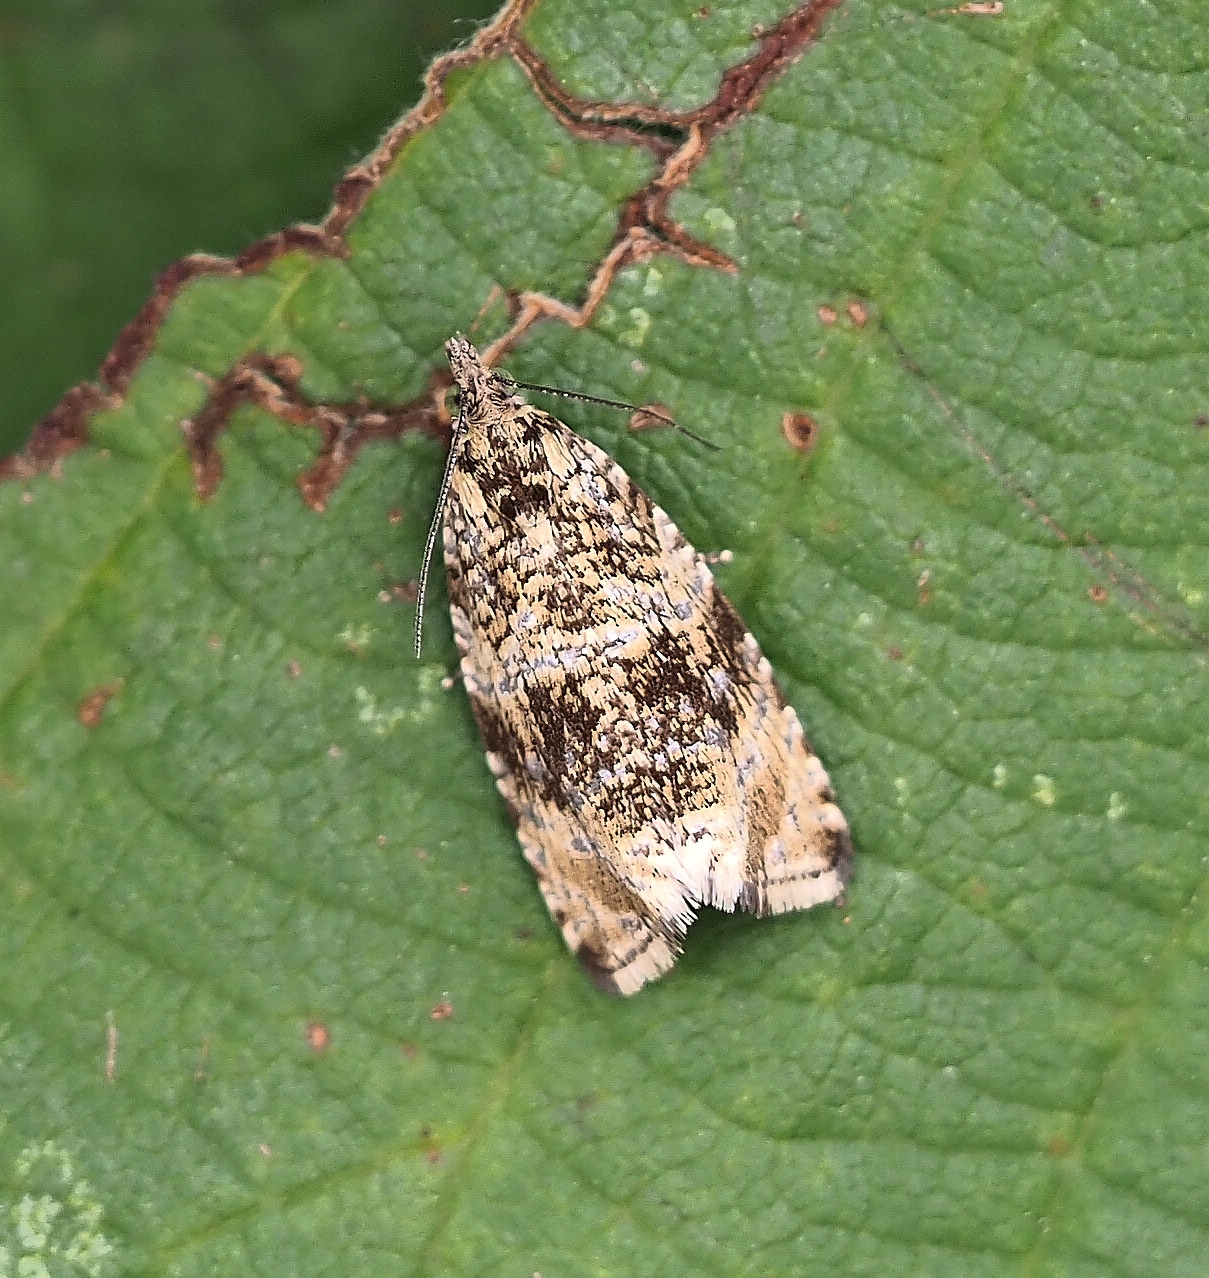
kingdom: Animalia
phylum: Arthropoda
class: Insecta
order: Lepidoptera
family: Tortricidae
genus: Syricoris
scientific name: Syricoris lacunana
